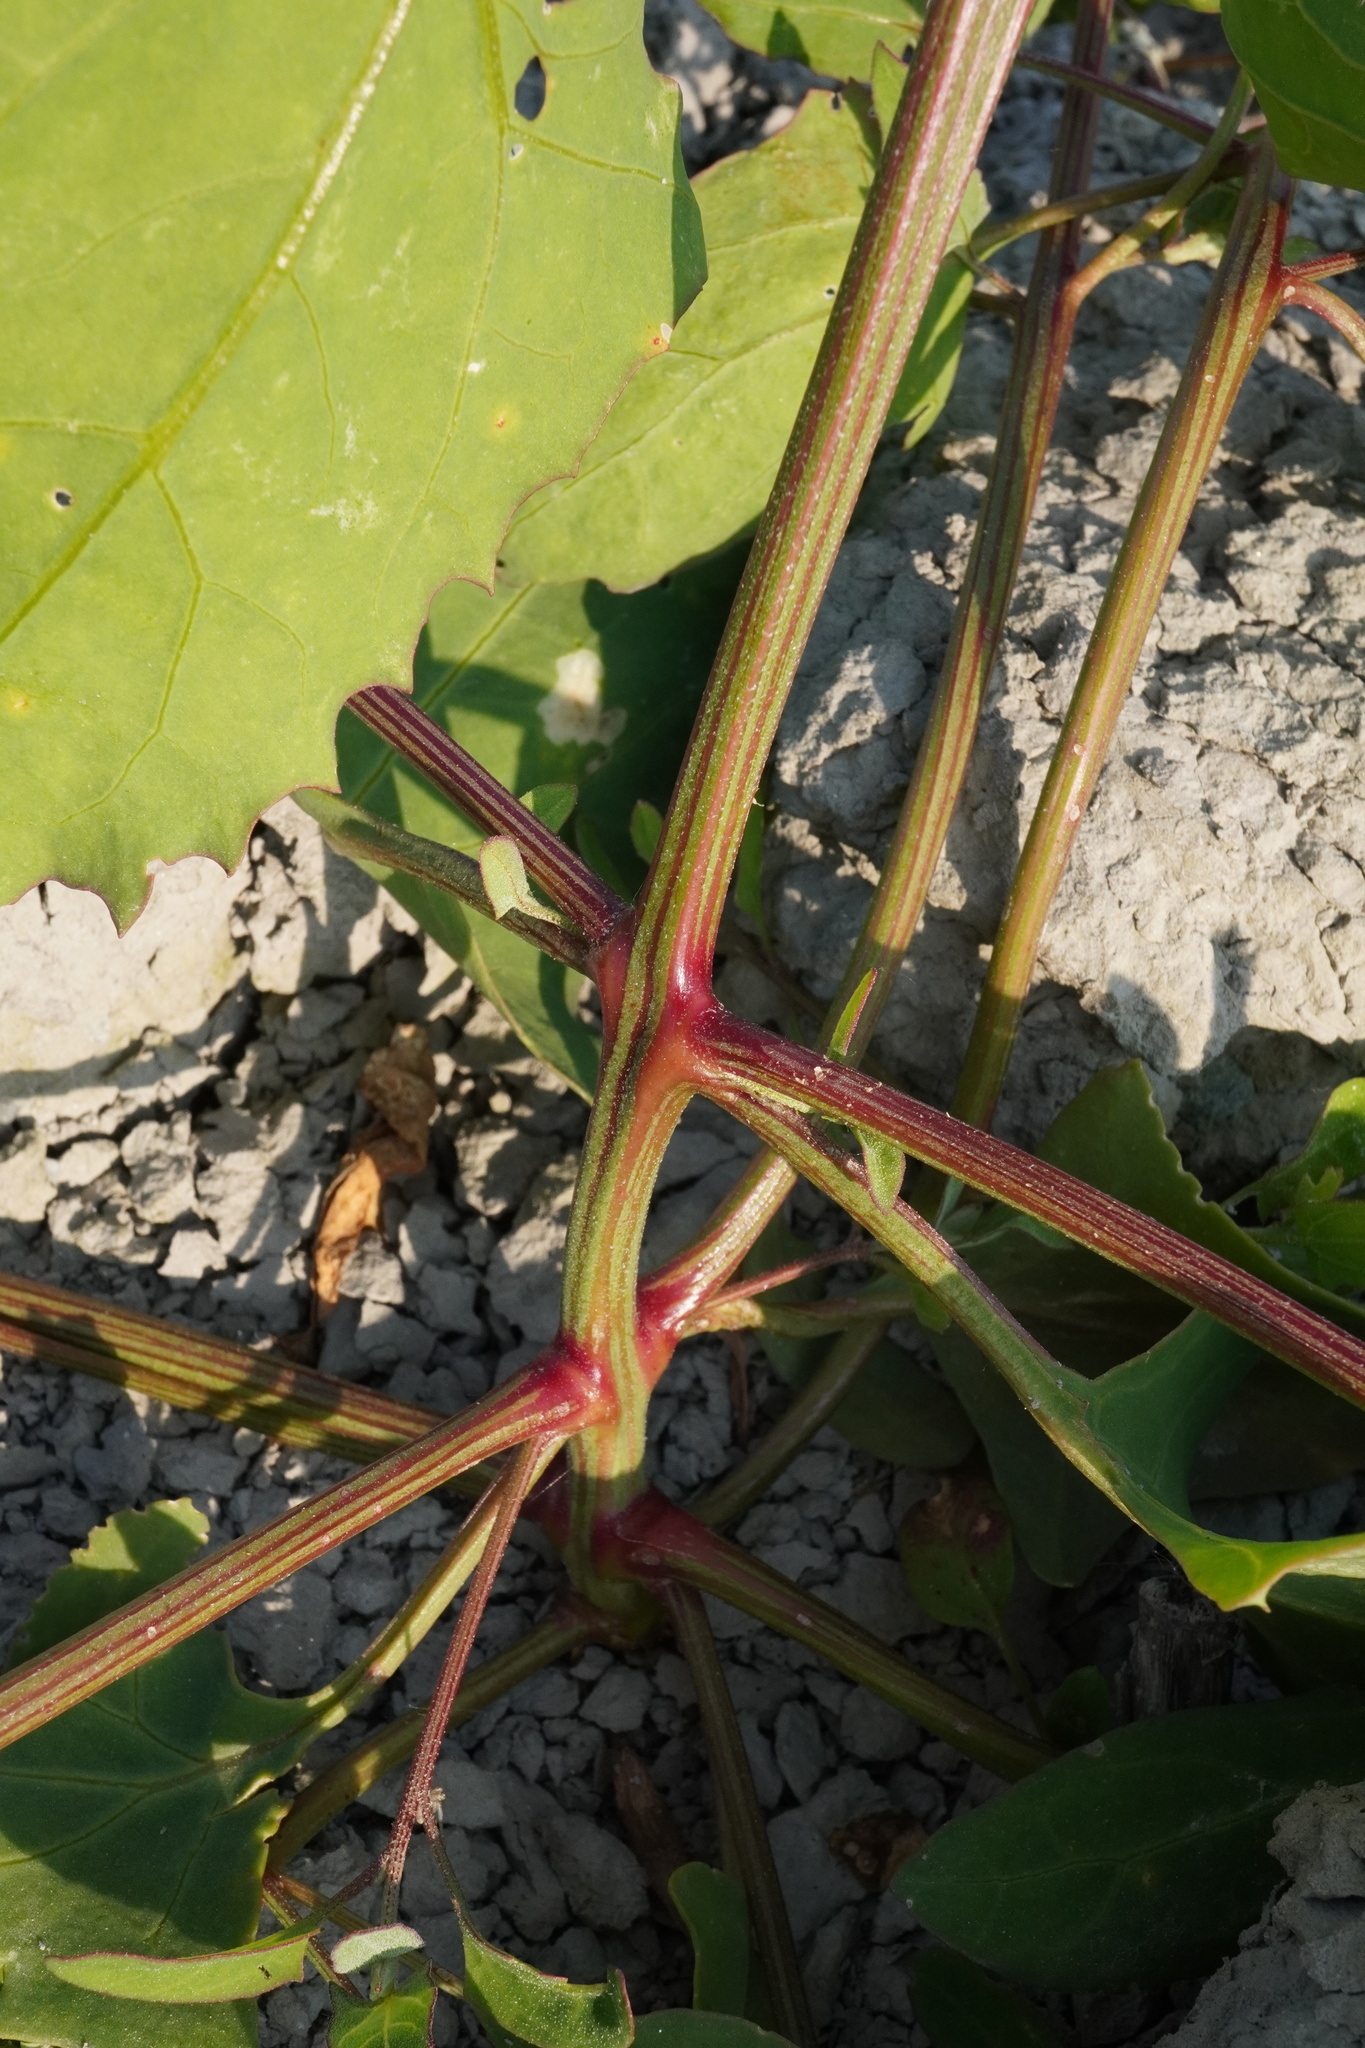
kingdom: Plantae
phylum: Tracheophyta
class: Magnoliopsida
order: Caryophyllales
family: Amaranthaceae
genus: Atriplex
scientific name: Atriplex prostrata
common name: Spear-leaved orache
